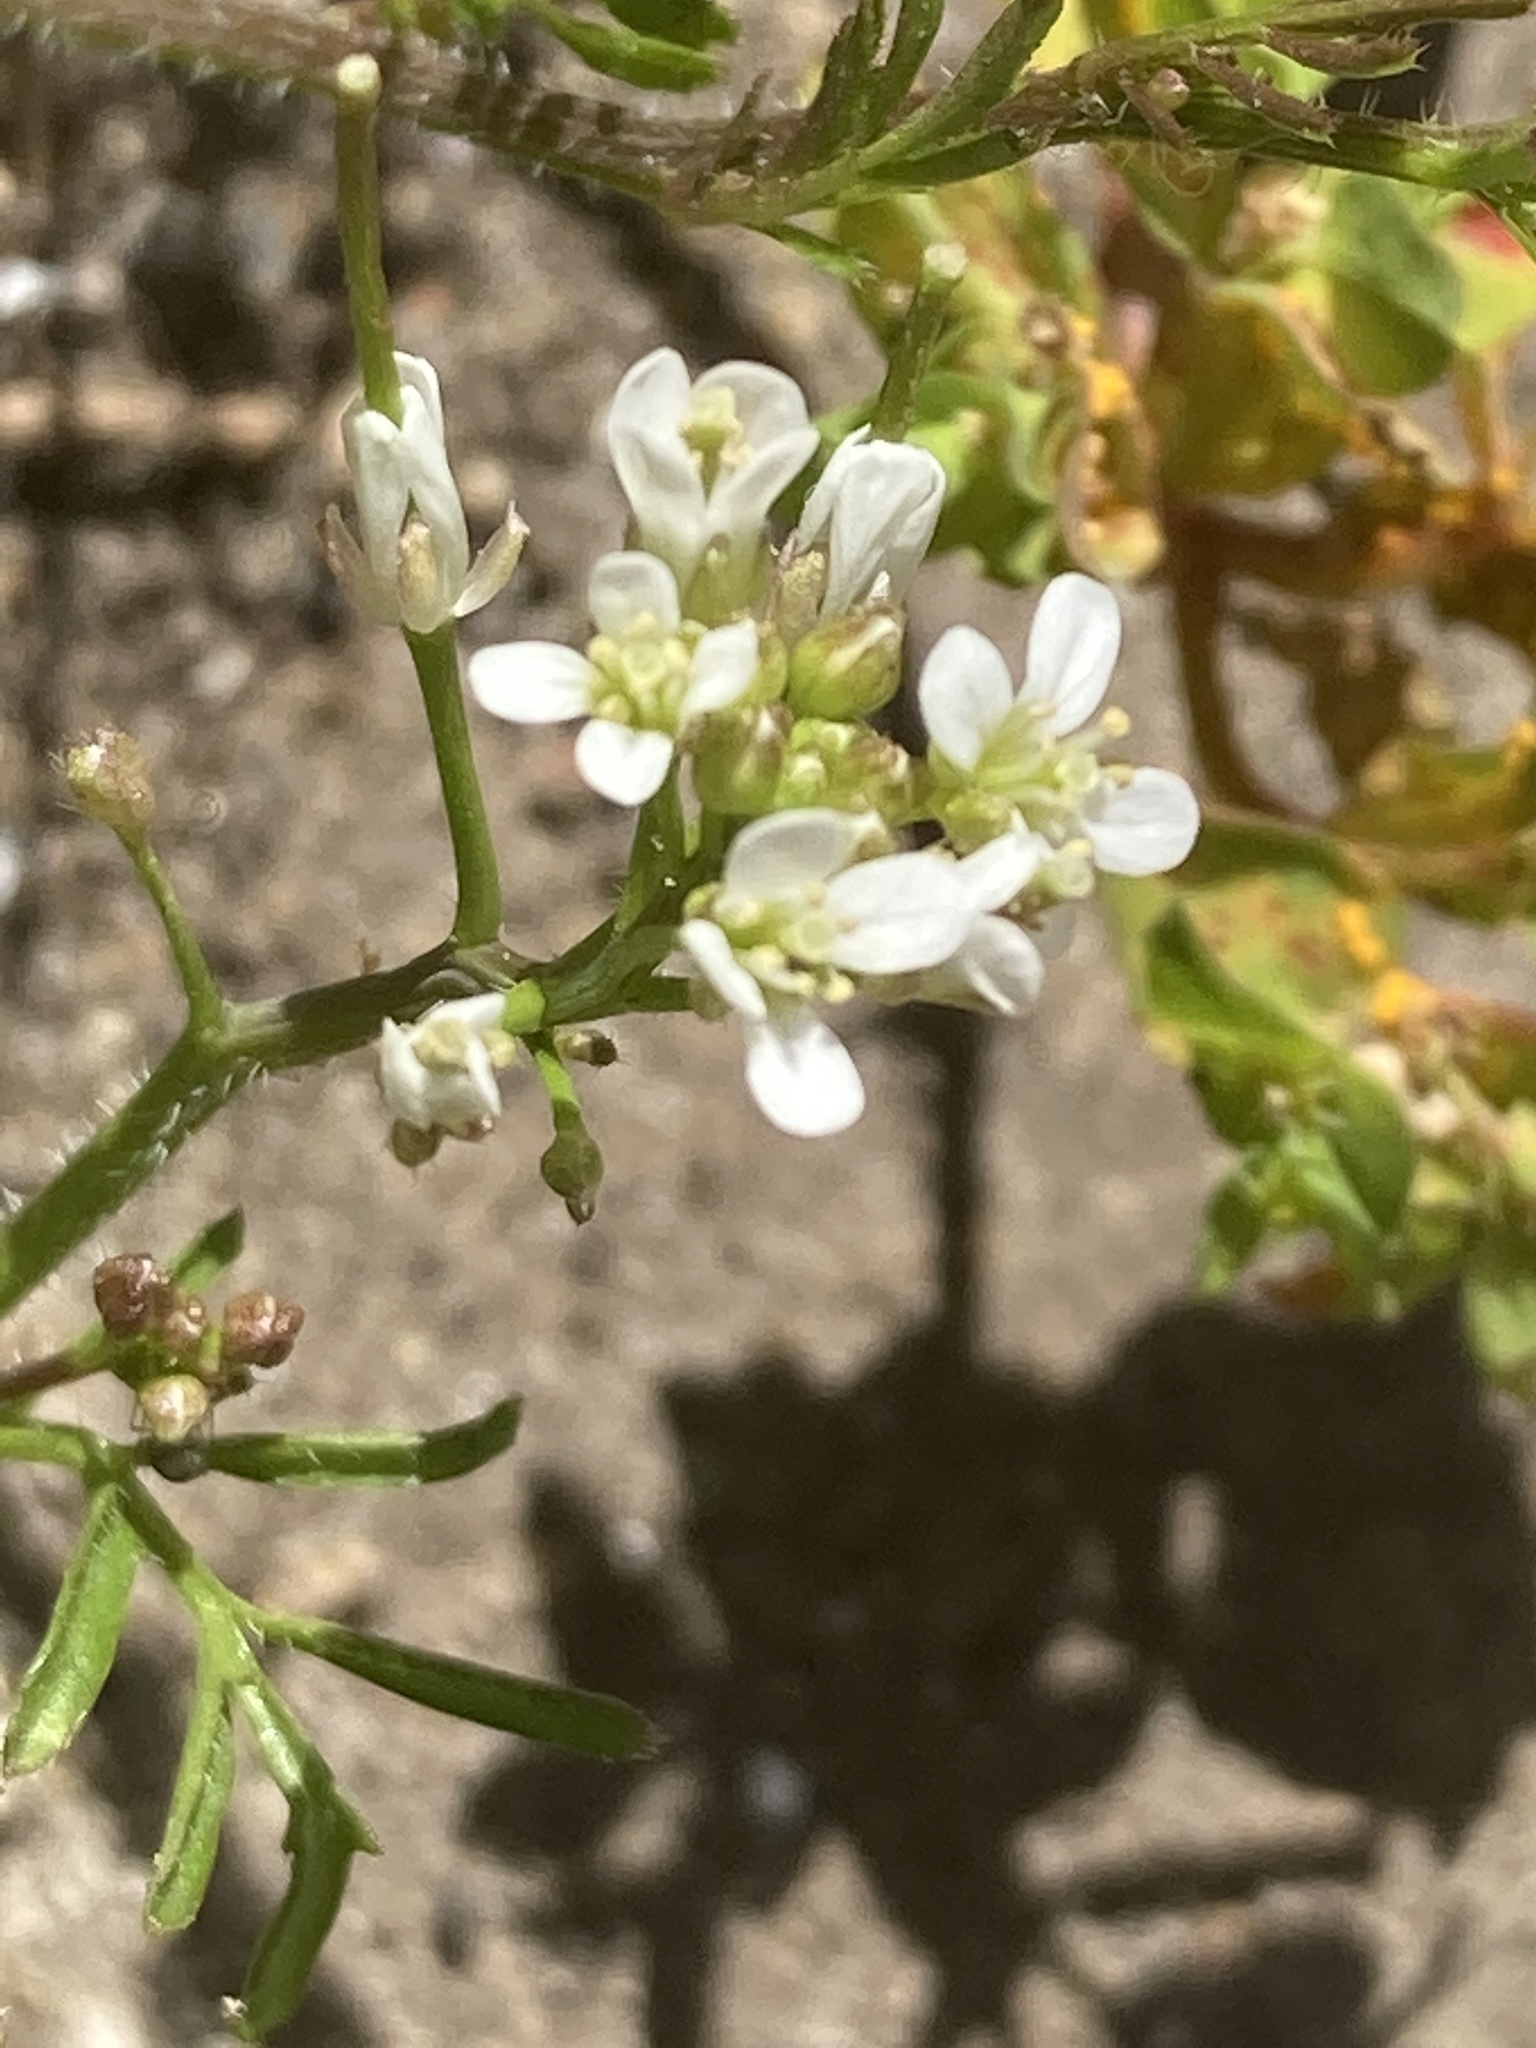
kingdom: Plantae
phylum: Tracheophyta
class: Magnoliopsida
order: Brassicales
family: Brassicaceae
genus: Cardamine
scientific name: Cardamine flexuosa
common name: Woodland bittercress
